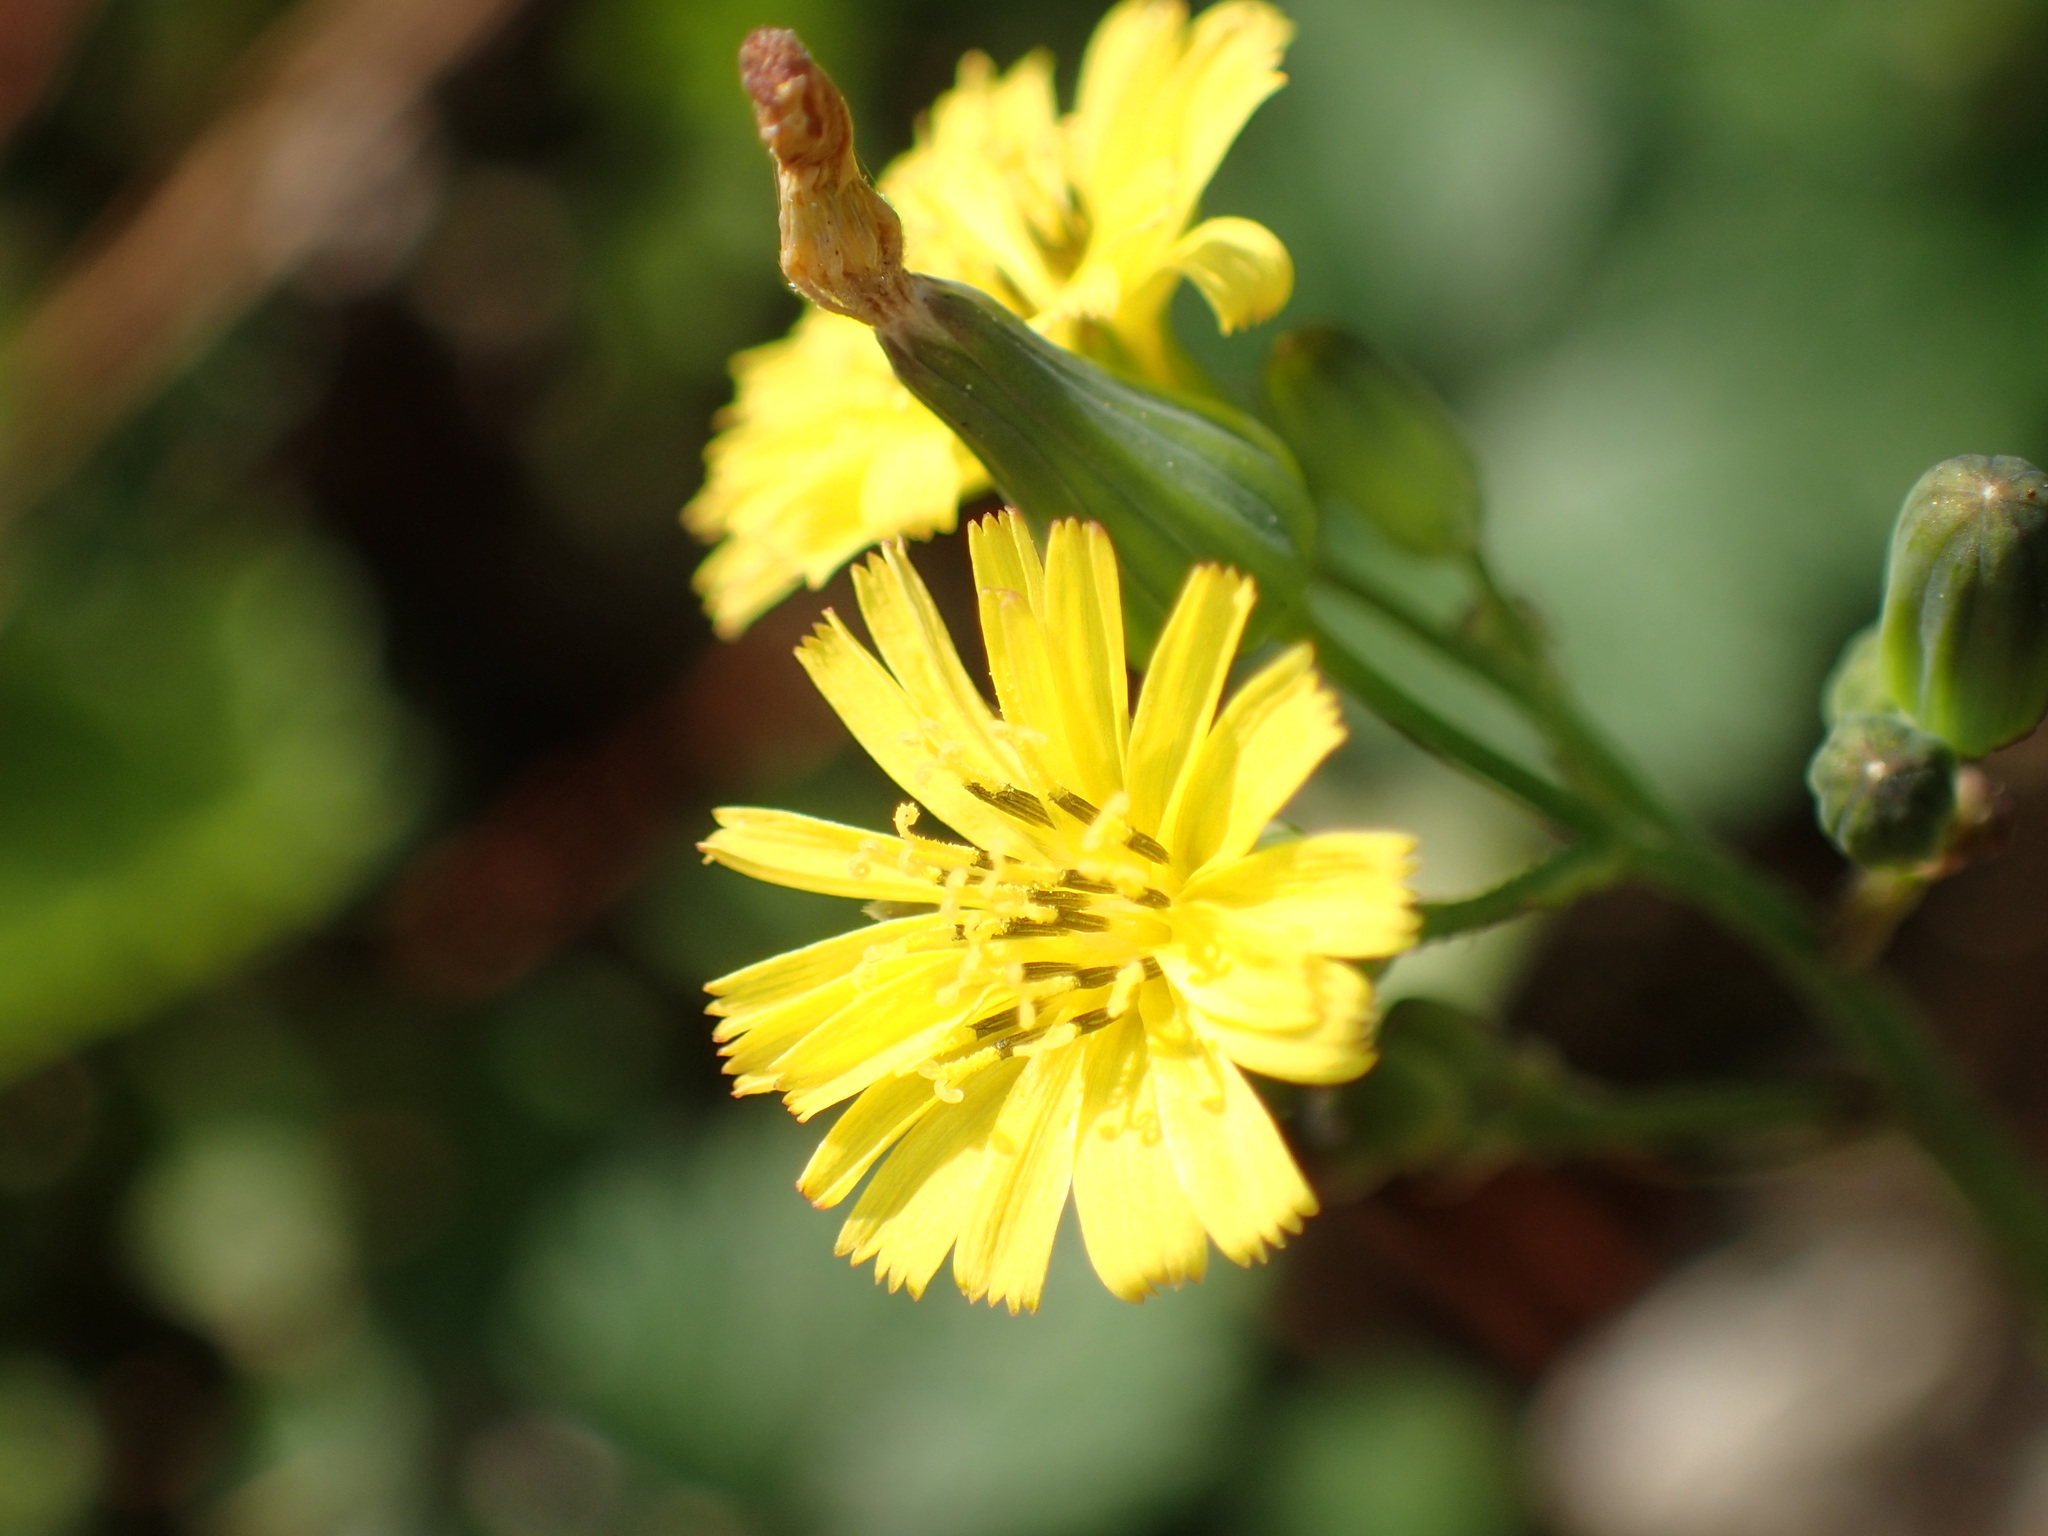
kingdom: Plantae
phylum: Tracheophyta
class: Magnoliopsida
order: Asterales
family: Asteraceae
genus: Youngia
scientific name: Youngia japonica
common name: Oriental false hawksbeard
